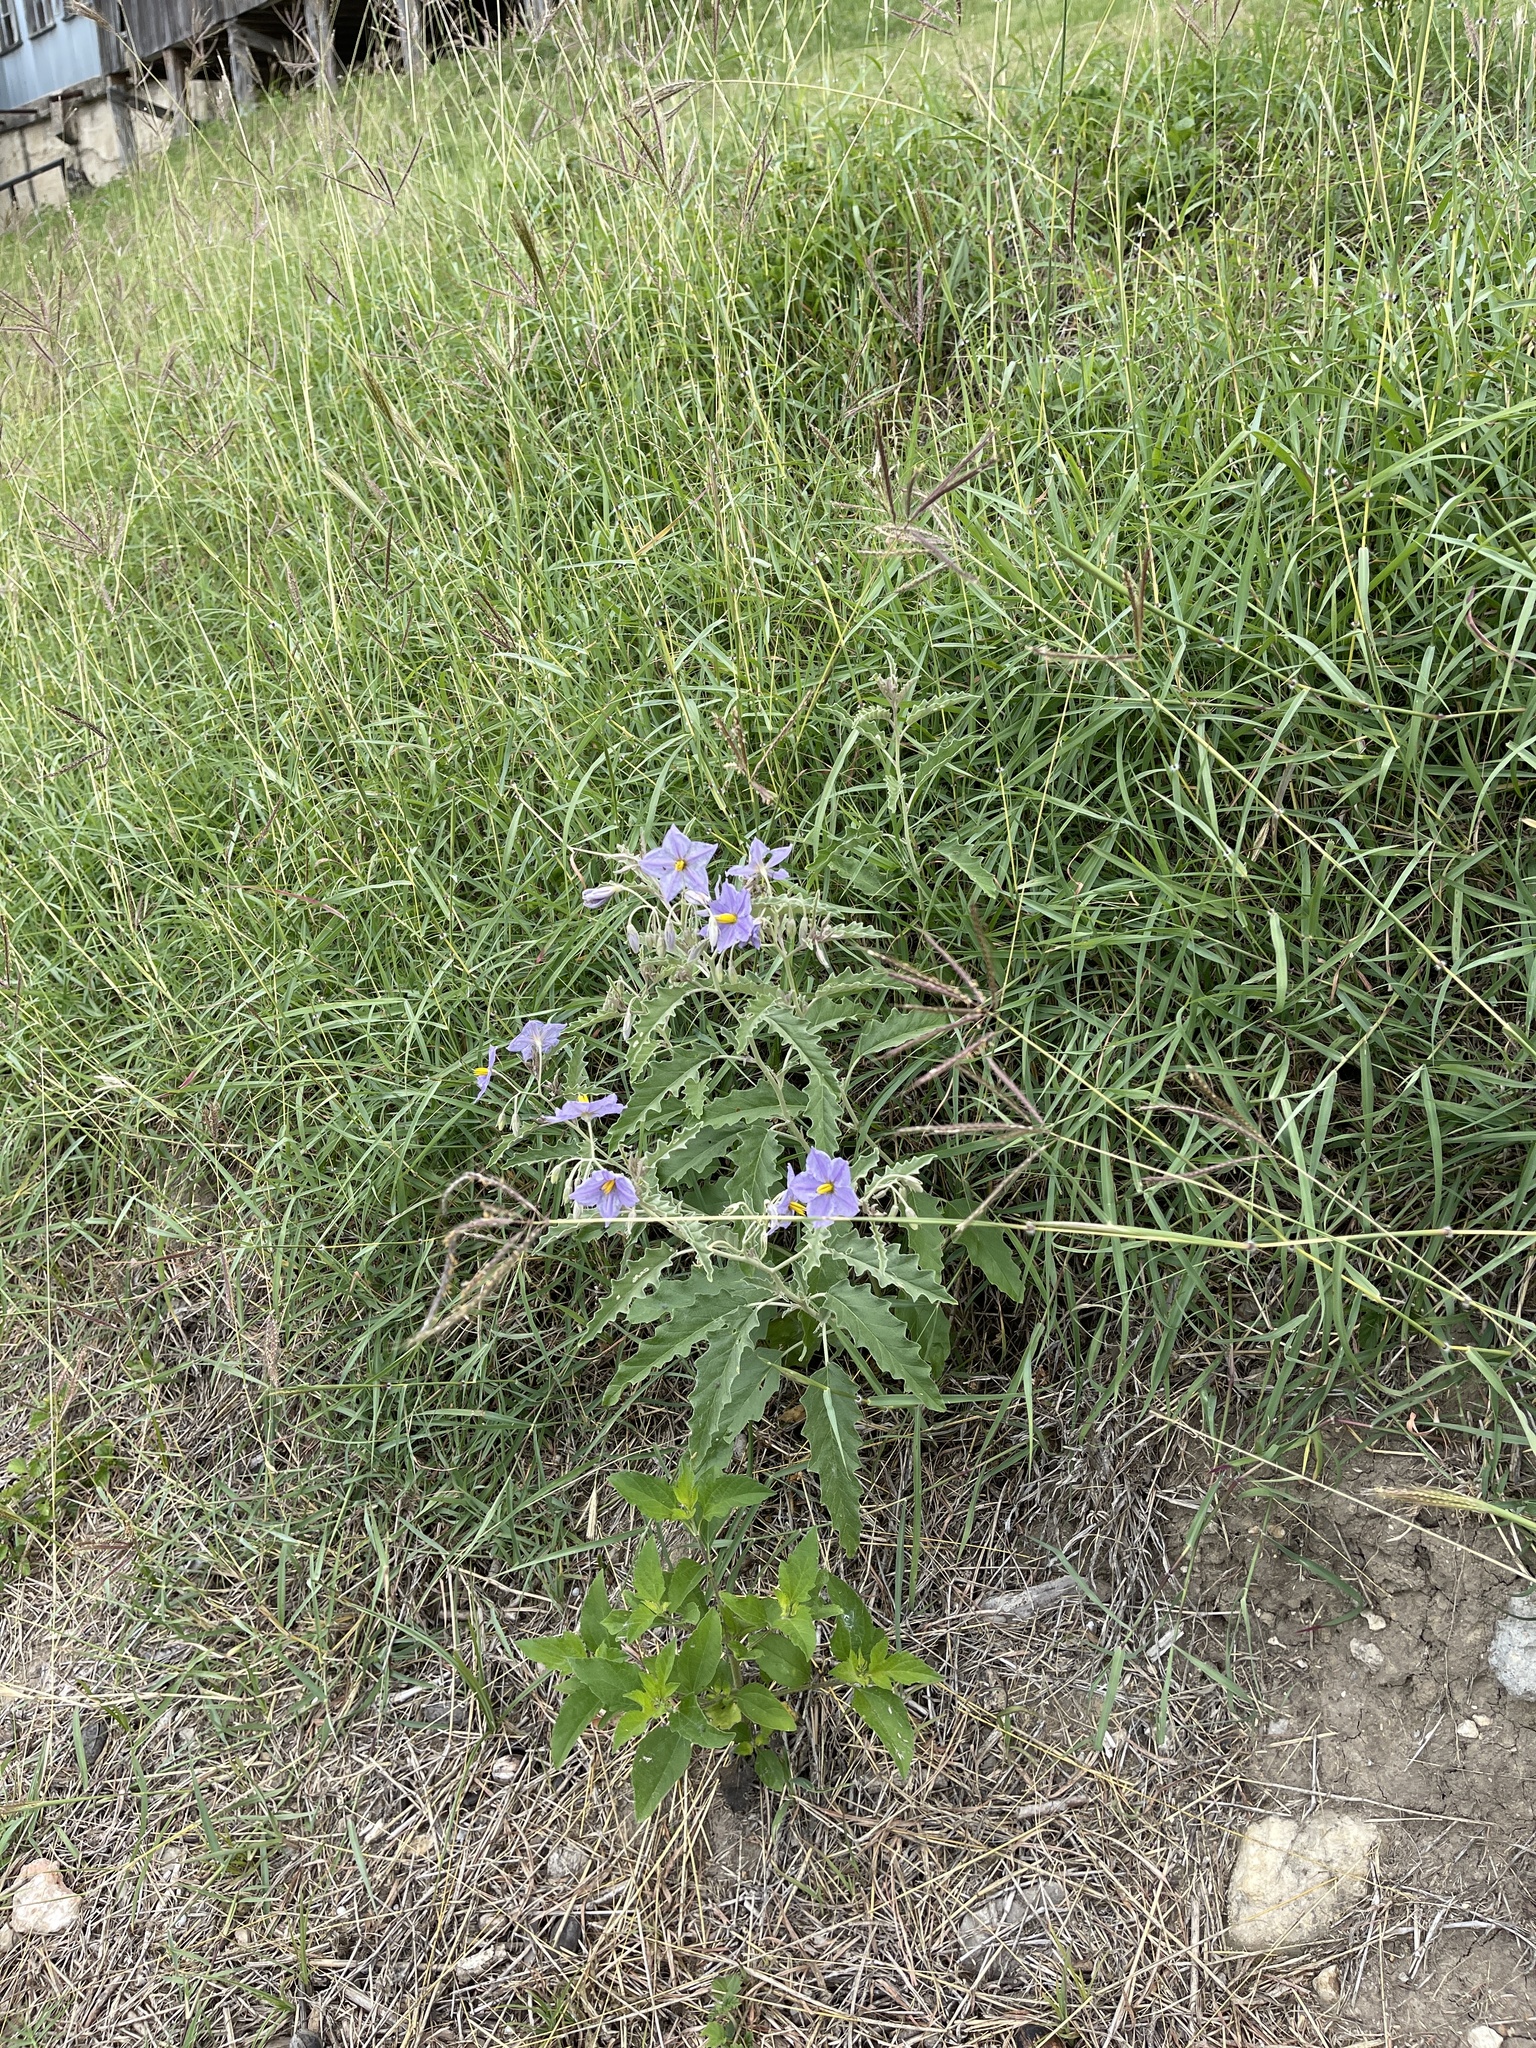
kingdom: Plantae
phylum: Tracheophyta
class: Magnoliopsida
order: Solanales
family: Solanaceae
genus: Solanum
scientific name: Solanum elaeagnifolium
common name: Silverleaf nightshade
